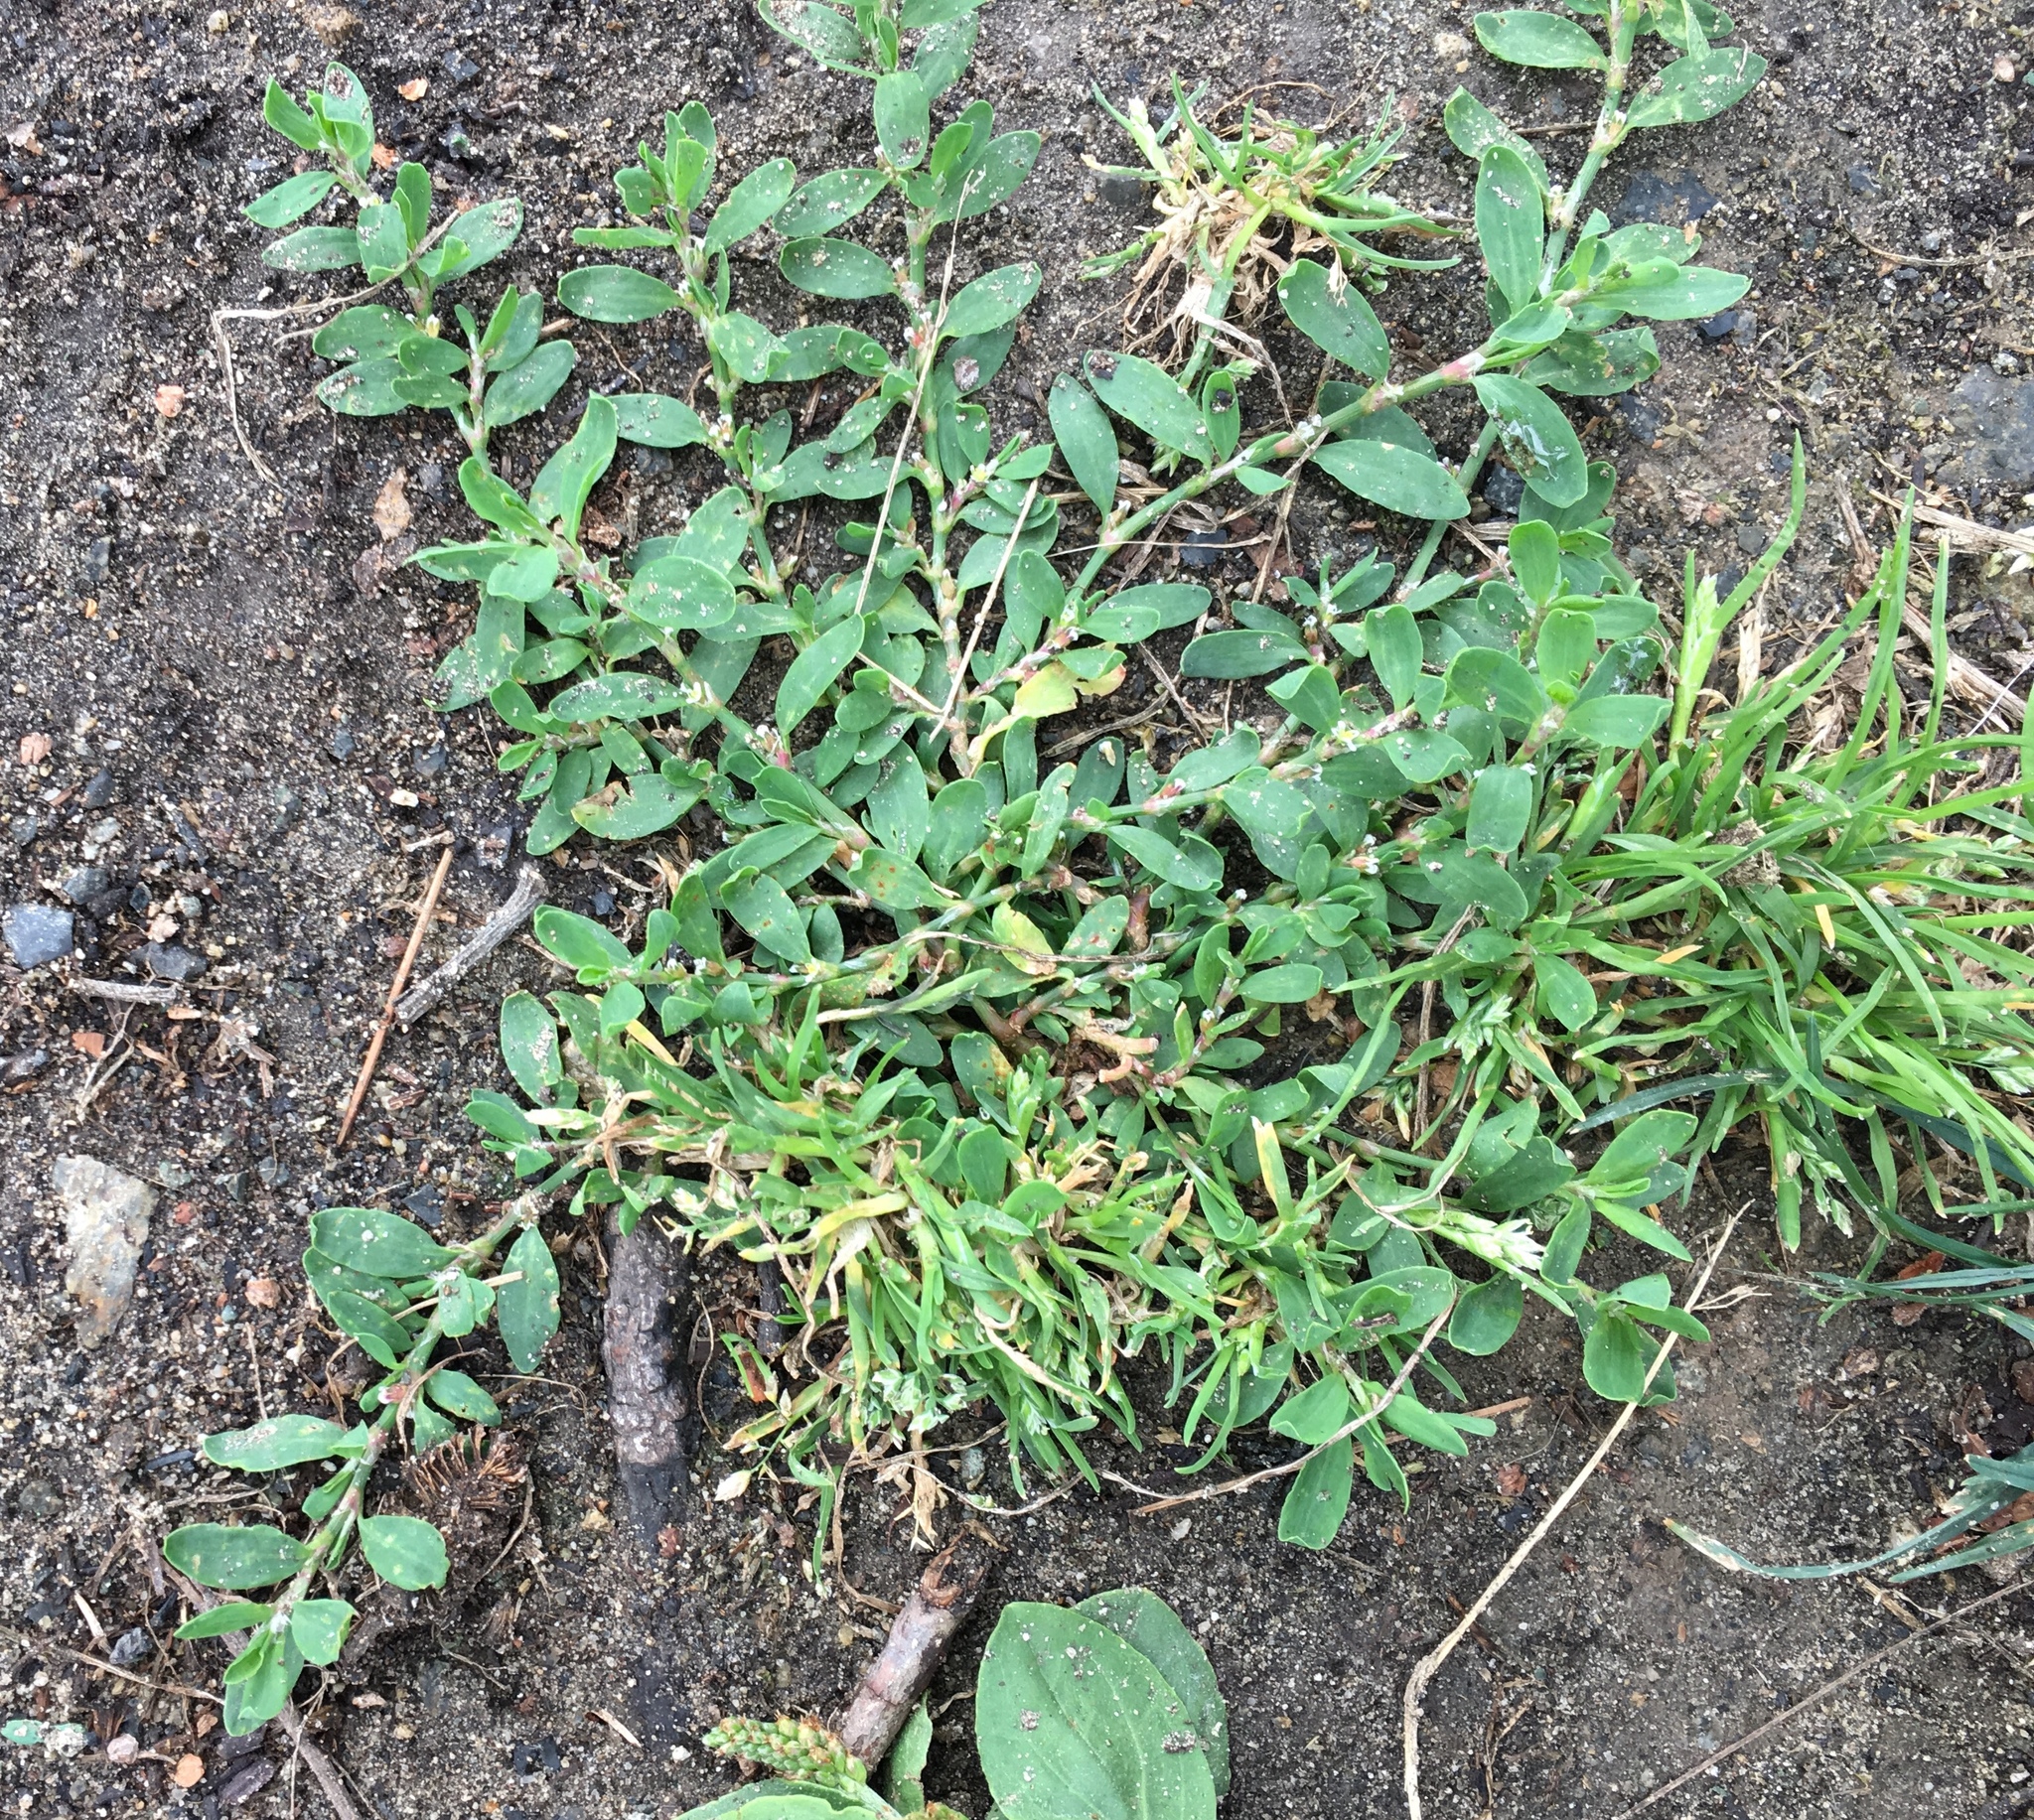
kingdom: Plantae
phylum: Tracheophyta
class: Magnoliopsida
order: Caryophyllales
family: Polygonaceae
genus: Polygonum
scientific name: Polygonum aviculare
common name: Prostrate knotweed
